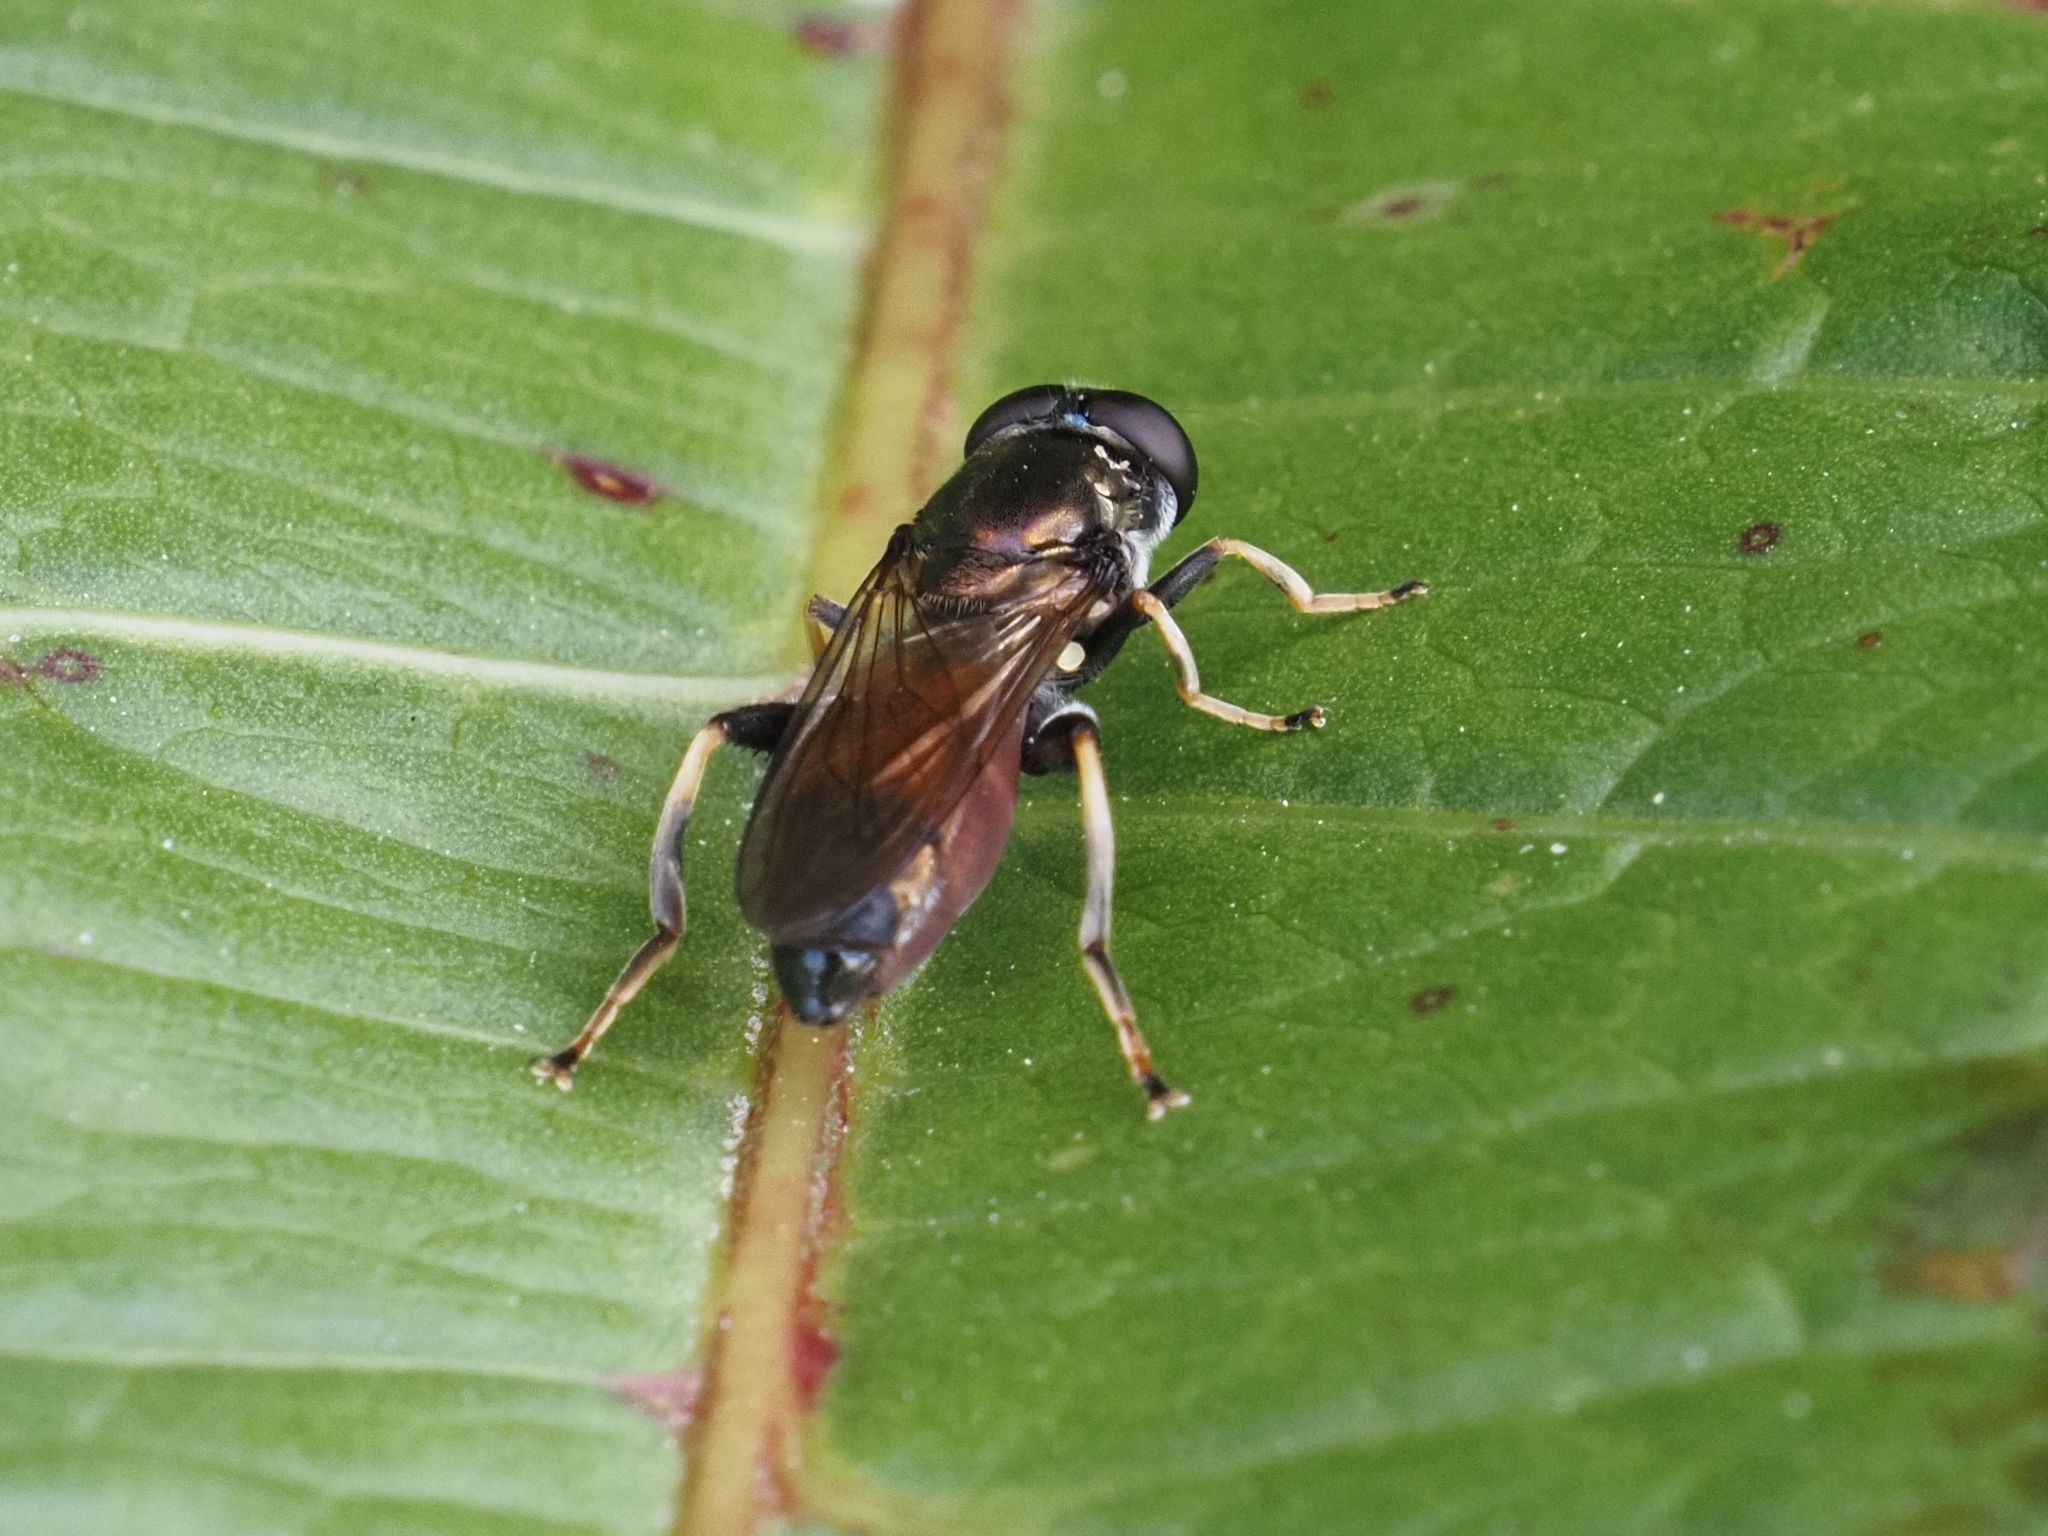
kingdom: Animalia
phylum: Arthropoda
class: Insecta
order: Diptera
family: Syrphidae
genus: Xylota
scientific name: Xylota segnis
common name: Brown-toed forest fly
